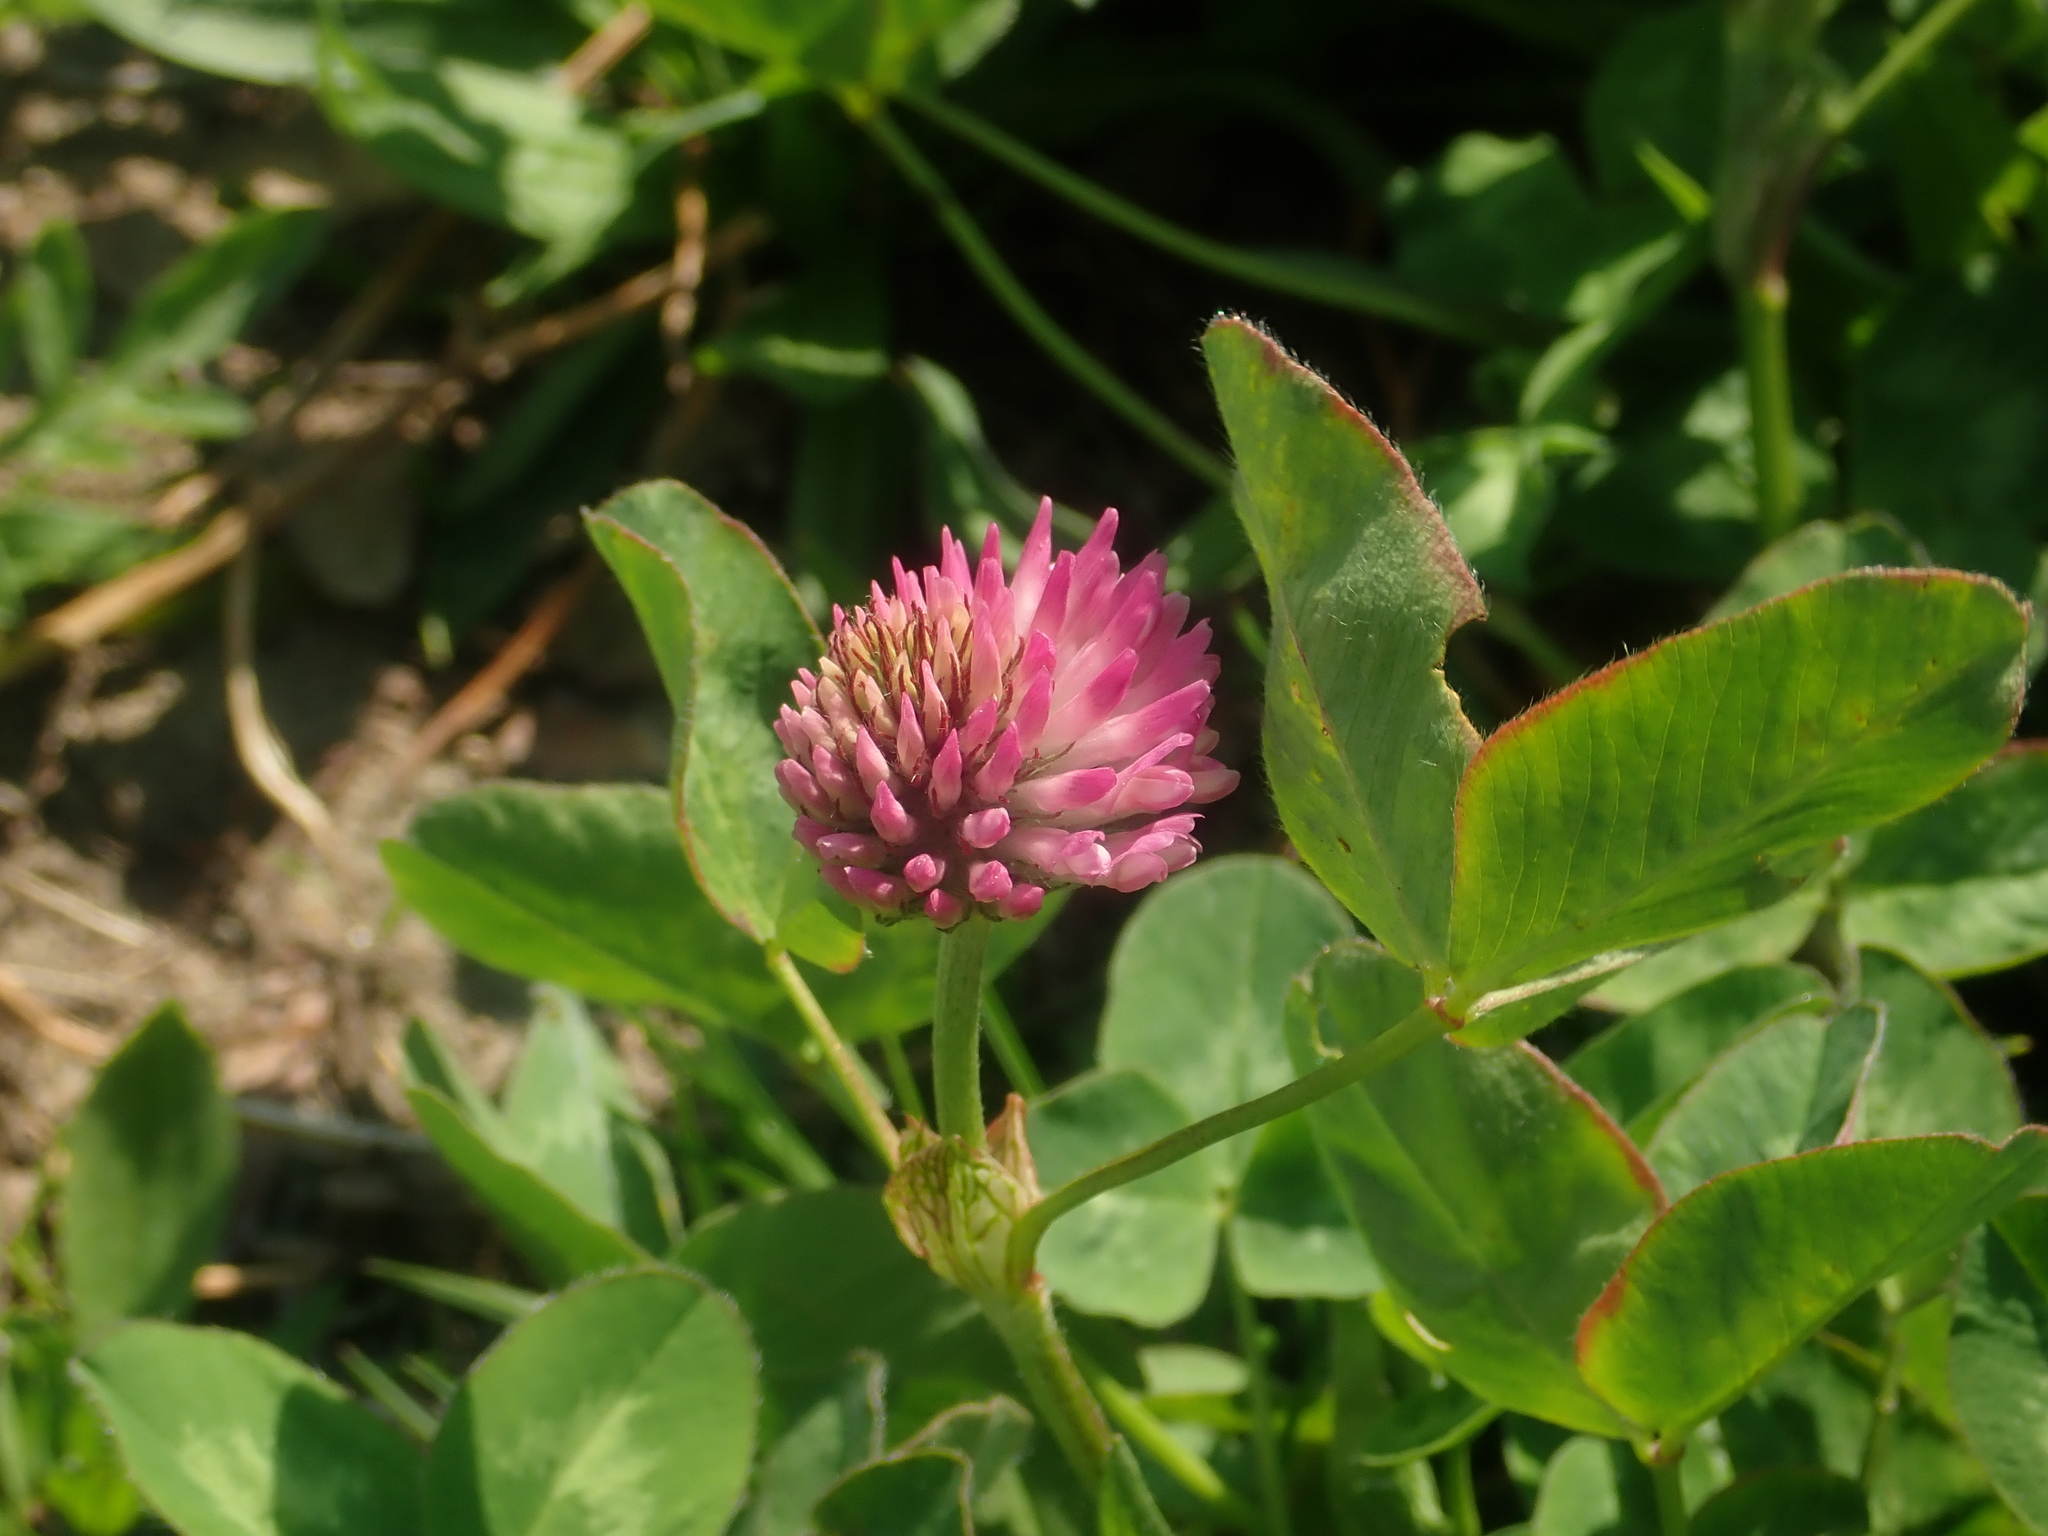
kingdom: Plantae
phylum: Tracheophyta
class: Magnoliopsida
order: Fabales
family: Fabaceae
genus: Trifolium
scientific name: Trifolium pratense
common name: Red clover
